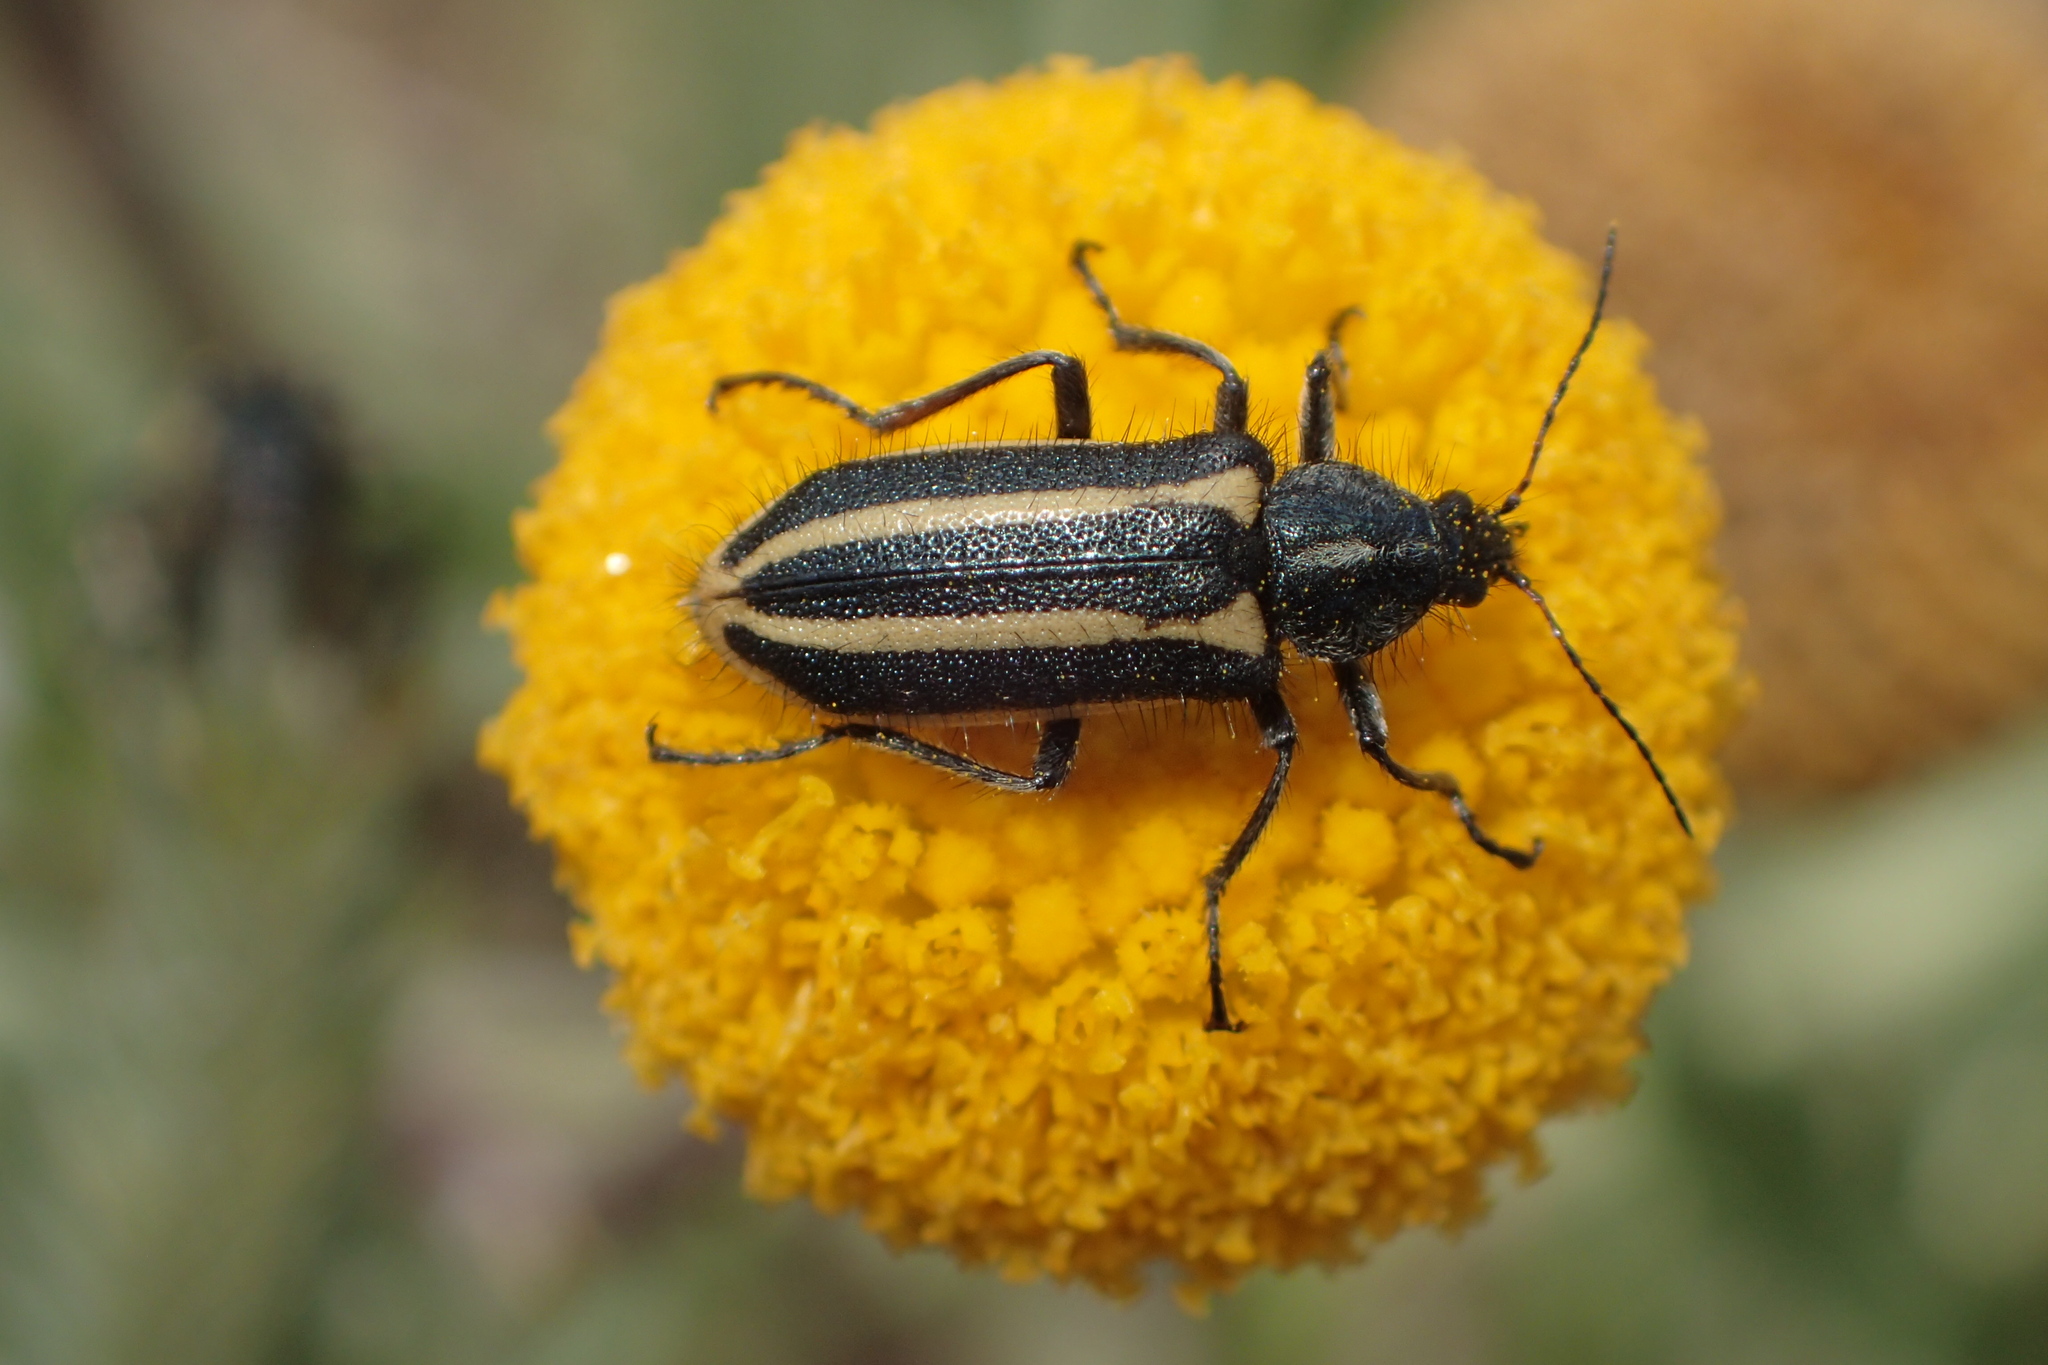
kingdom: Animalia
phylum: Arthropoda
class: Insecta
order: Coleoptera
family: Melyridae
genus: Astylus
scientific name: Astylus vittaticollis
